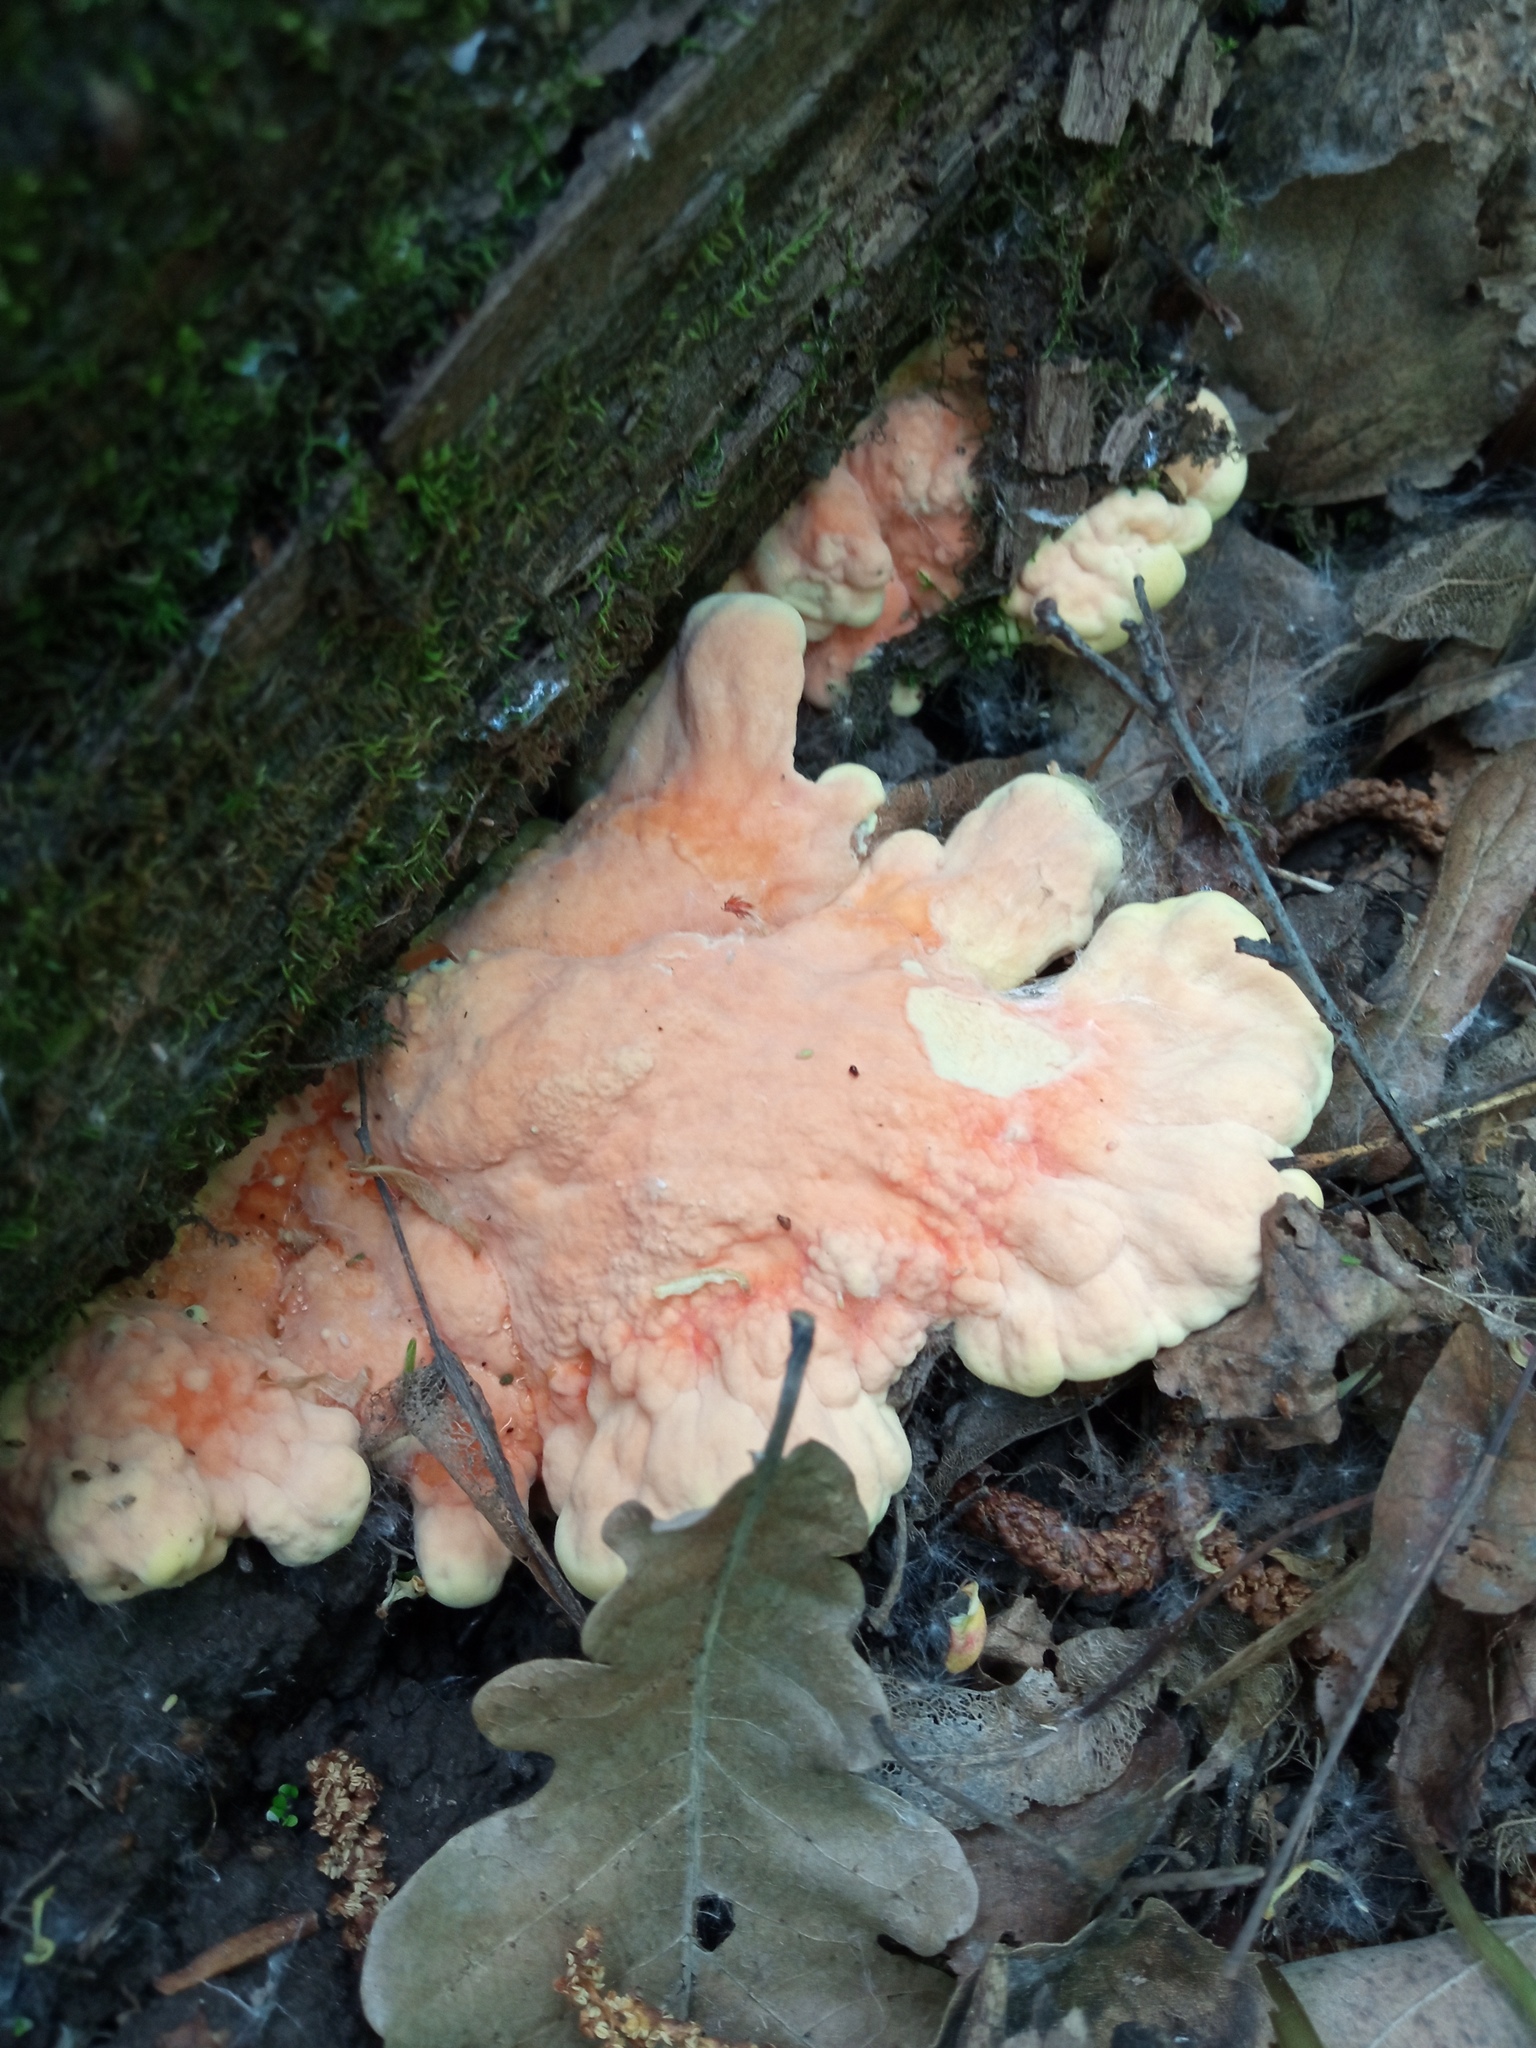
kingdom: Fungi
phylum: Basidiomycota
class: Agaricomycetes
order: Polyporales
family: Laetiporaceae
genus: Laetiporus
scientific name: Laetiporus sulphureus
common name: Chicken of the woods
